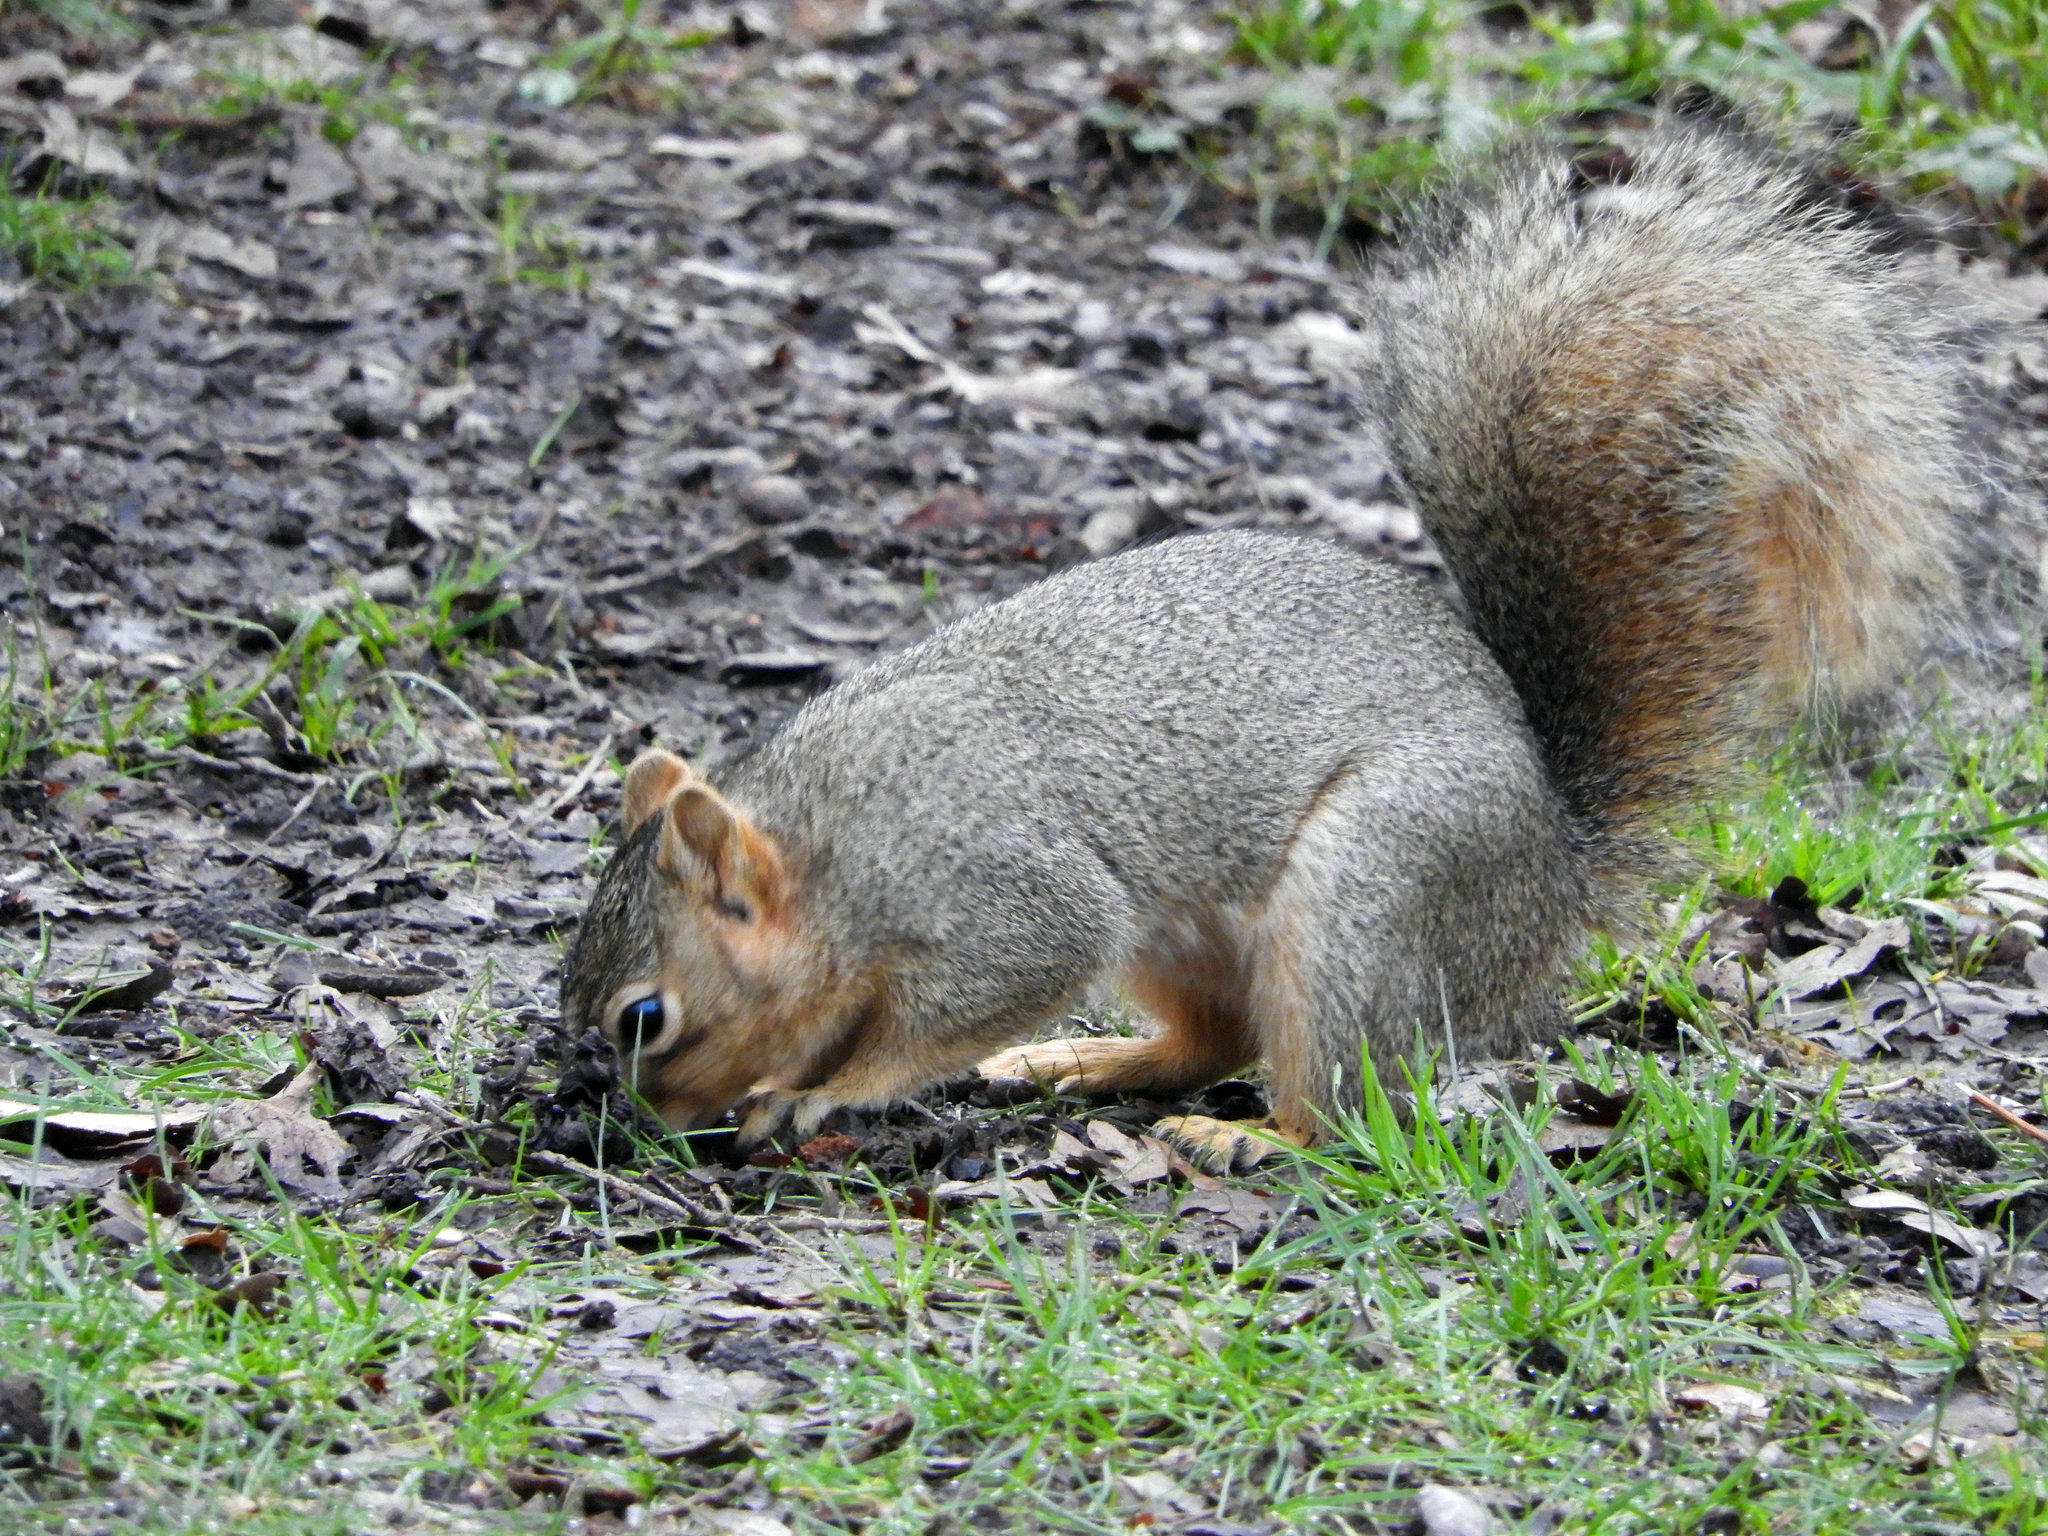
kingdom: Animalia
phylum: Chordata
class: Mammalia
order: Rodentia
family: Sciuridae
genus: Sciurus
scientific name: Sciurus niger
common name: Fox squirrel
